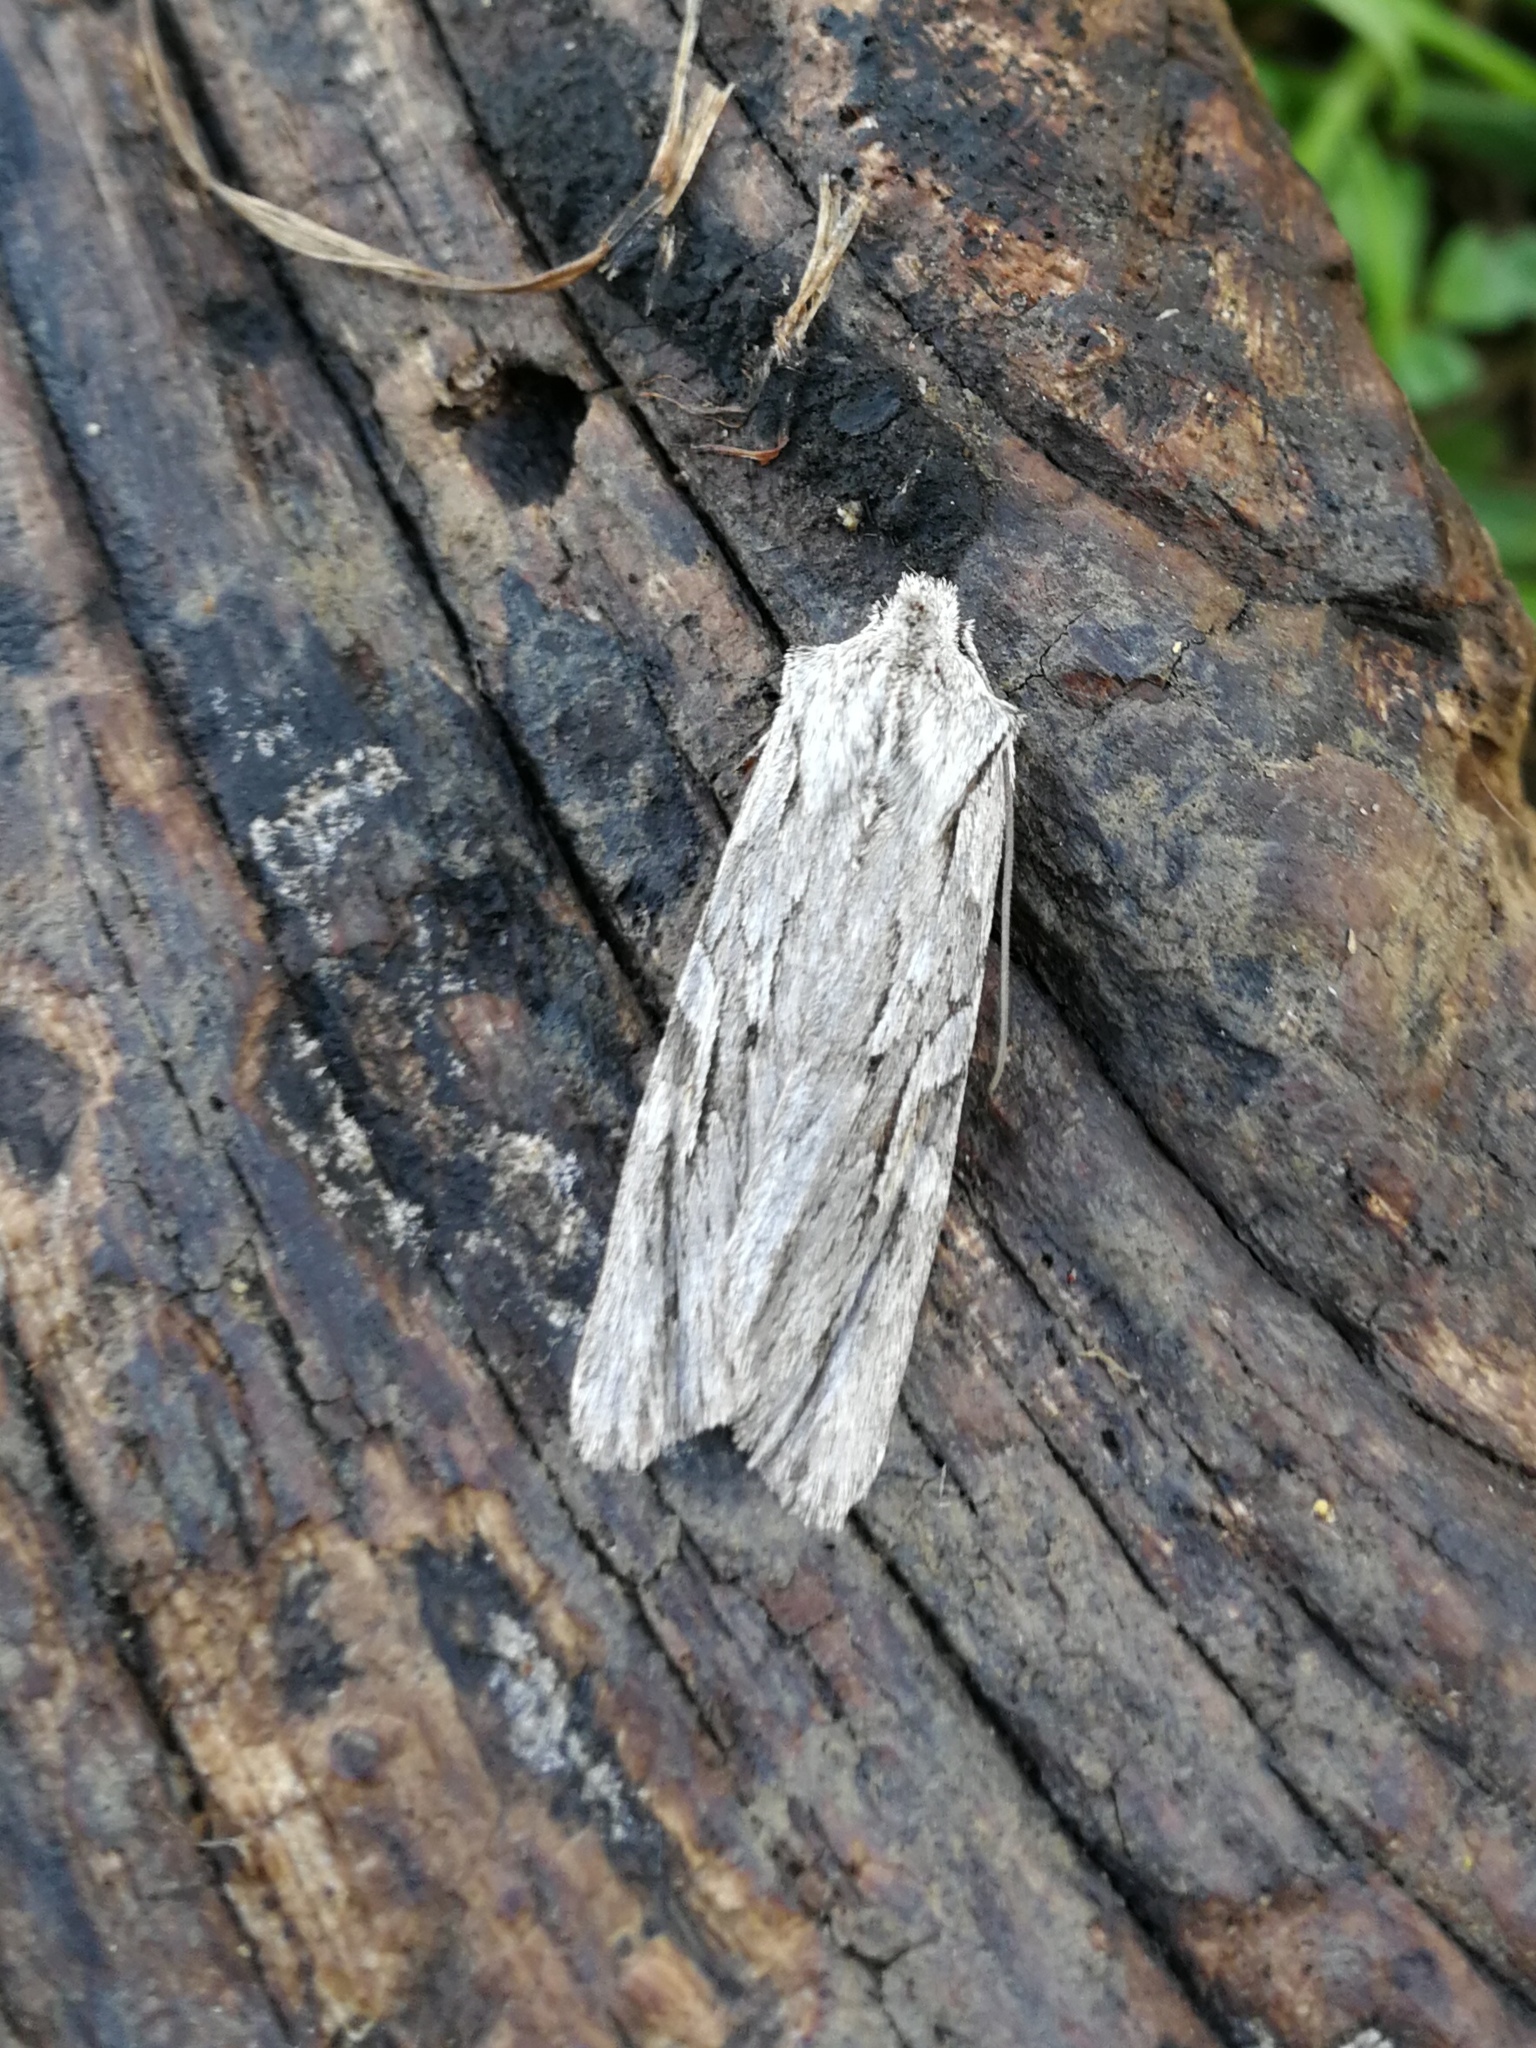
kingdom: Animalia
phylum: Arthropoda
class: Insecta
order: Lepidoptera
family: Noctuidae
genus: Lithophane
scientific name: Lithophane leautieri
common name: Blair's shoulder-knot
